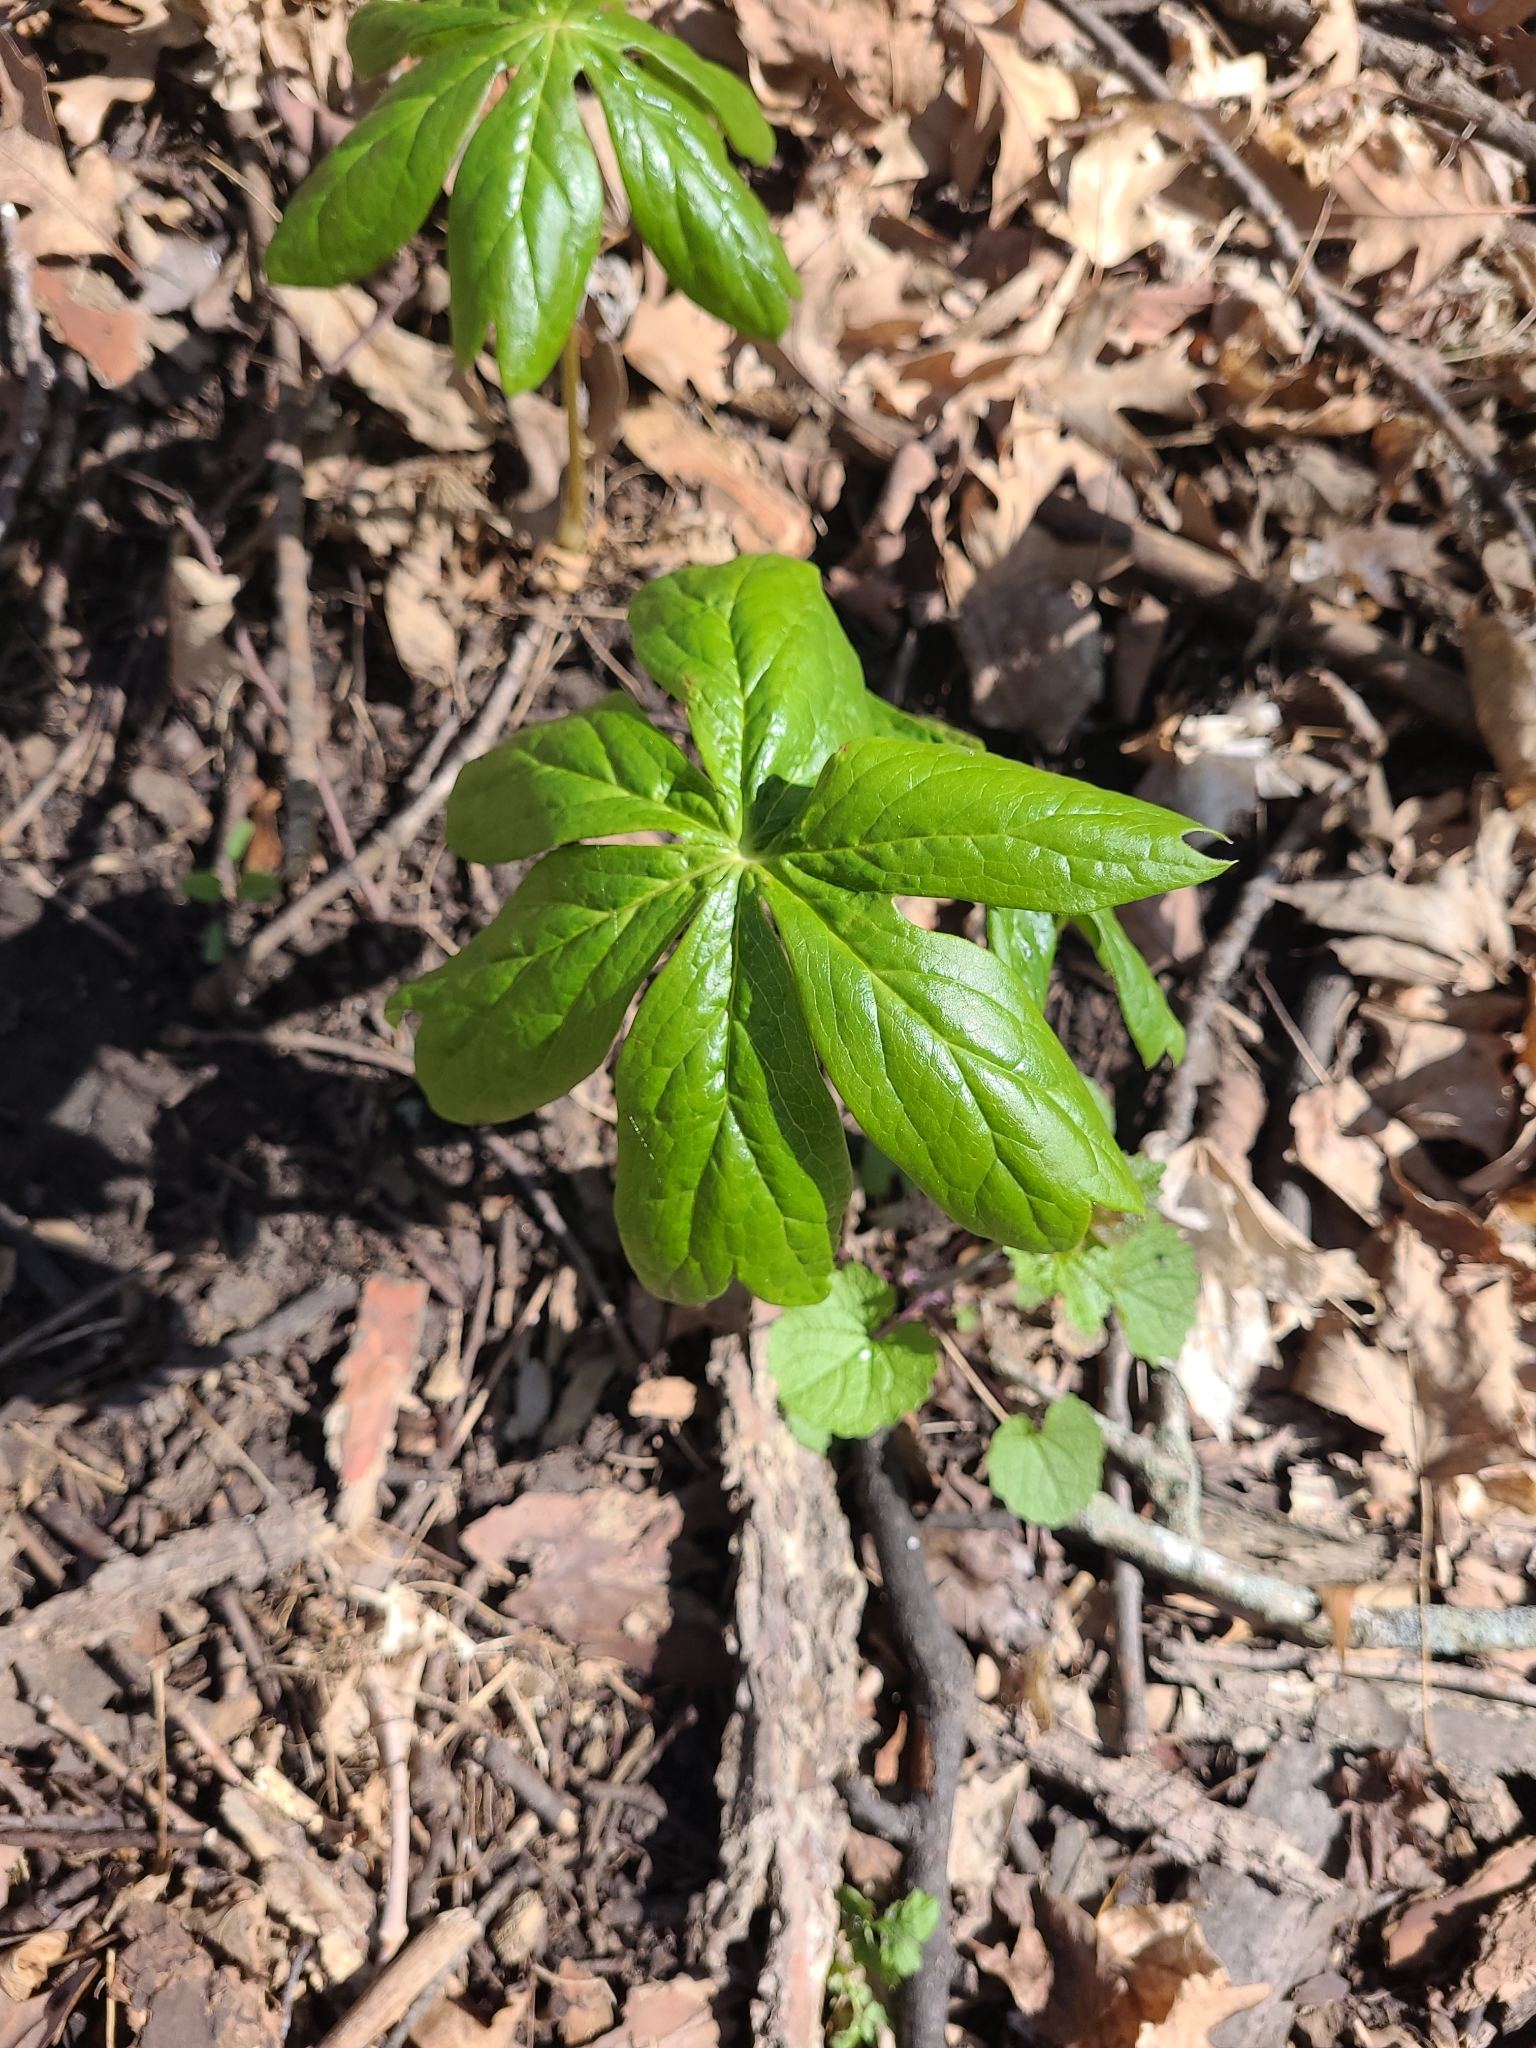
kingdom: Plantae
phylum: Tracheophyta
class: Magnoliopsida
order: Ranunculales
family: Berberidaceae
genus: Podophyllum
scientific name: Podophyllum peltatum
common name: Wild mandrake
